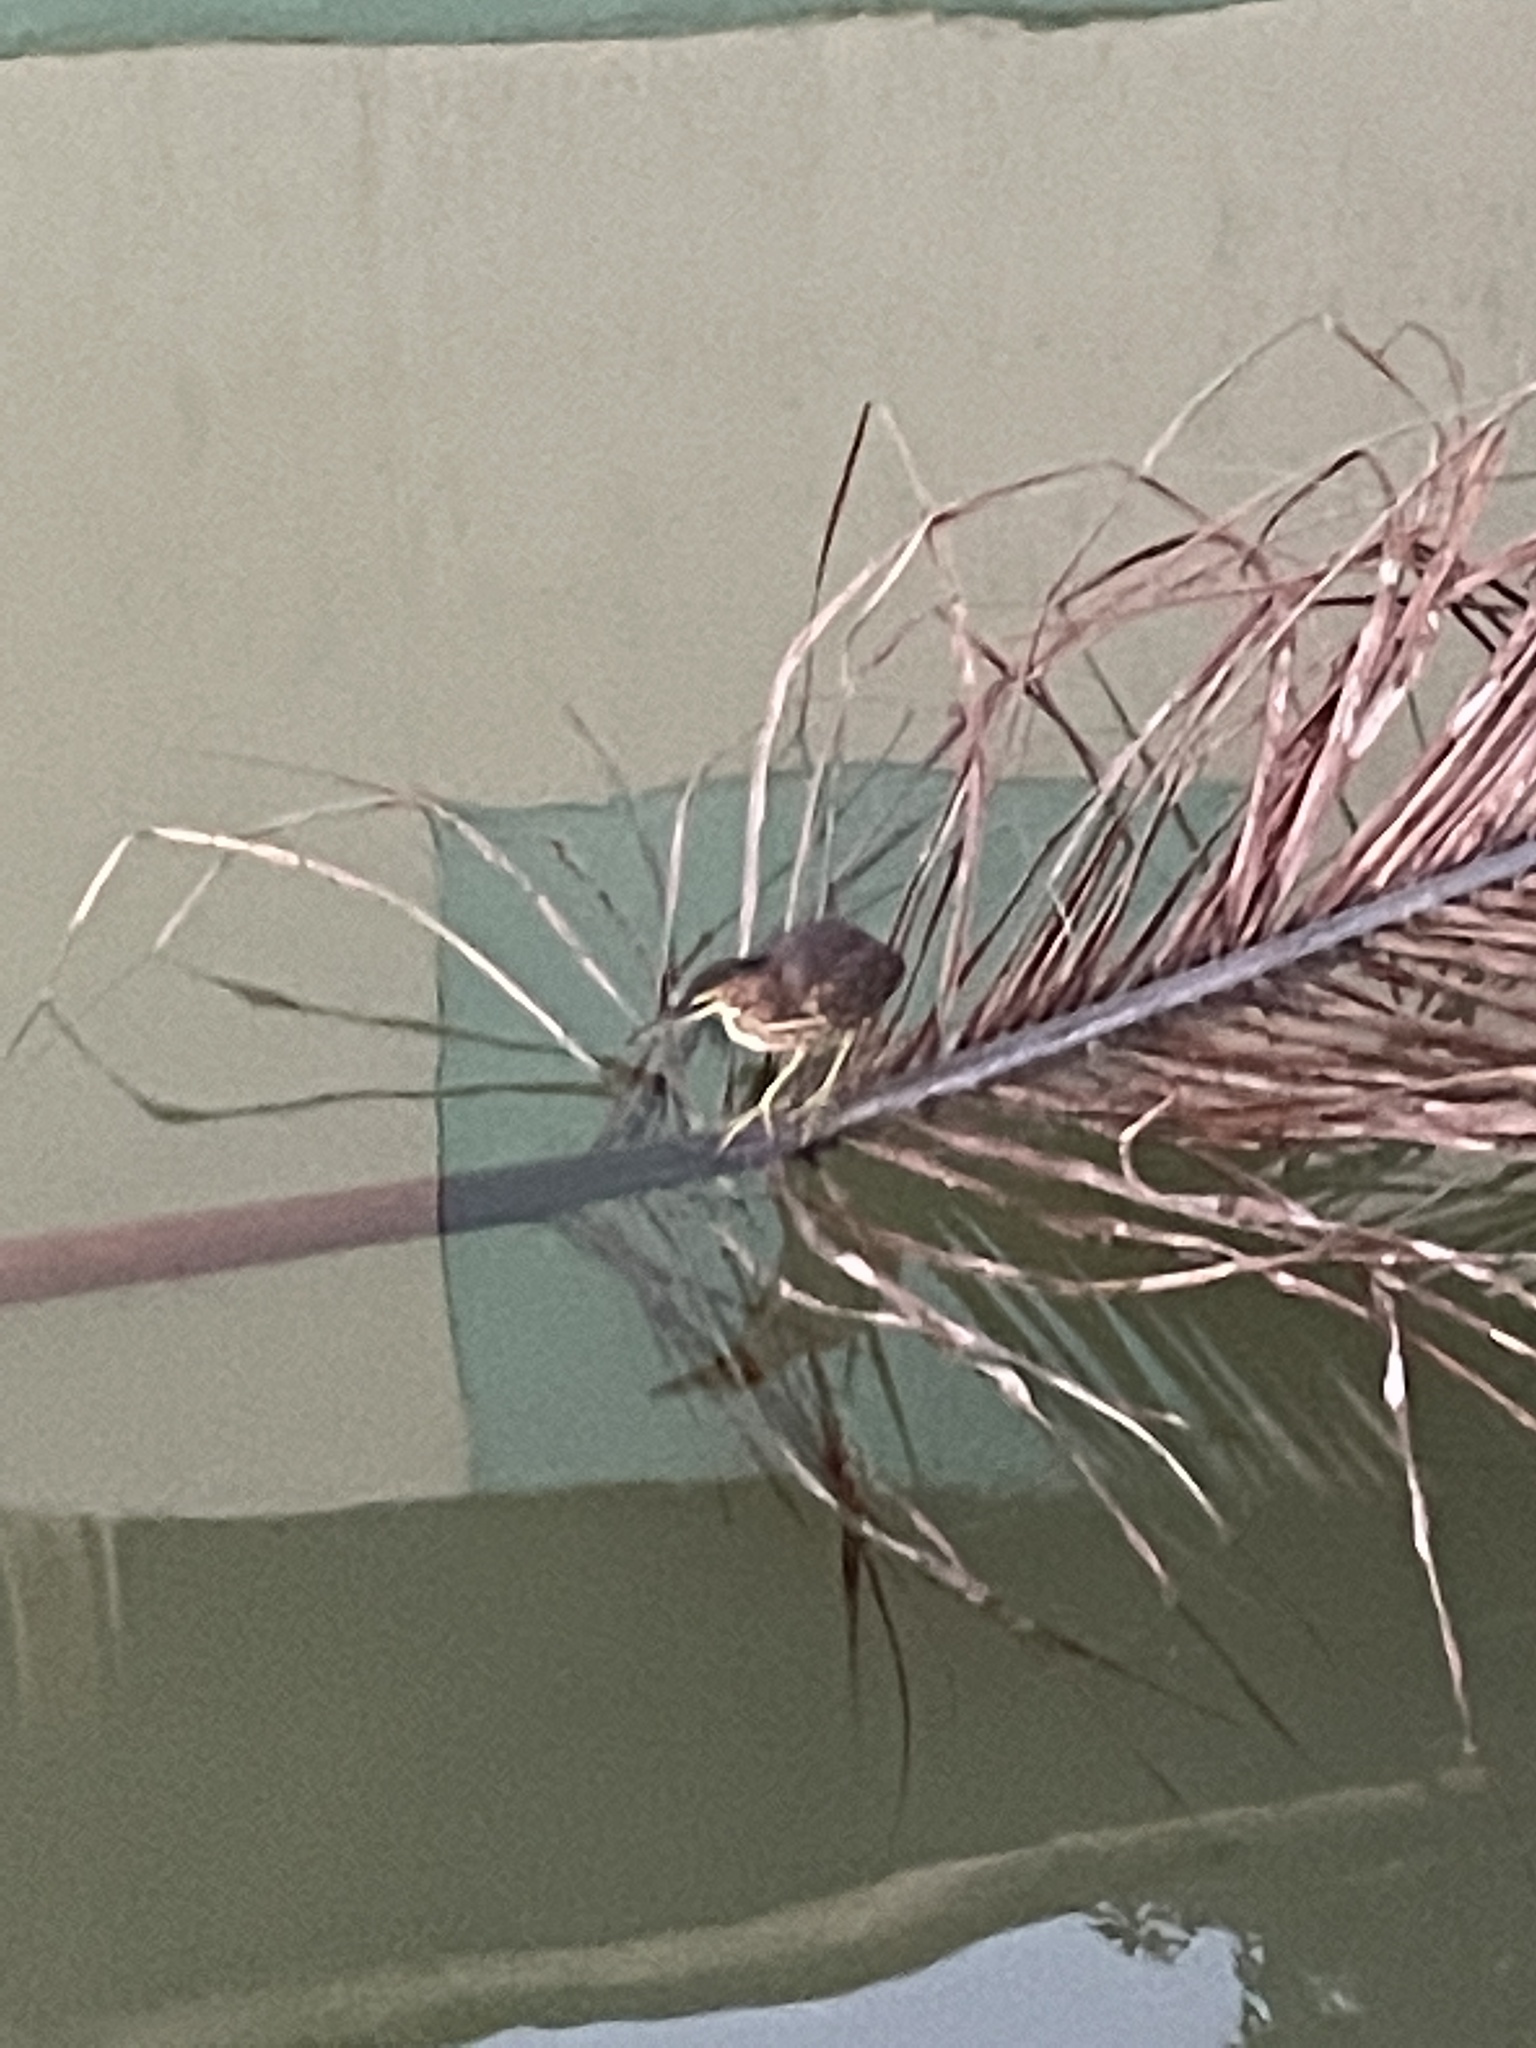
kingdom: Animalia
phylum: Chordata
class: Aves
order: Pelecaniformes
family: Ardeidae
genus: Butorides
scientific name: Butorides virescens
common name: Green heron
